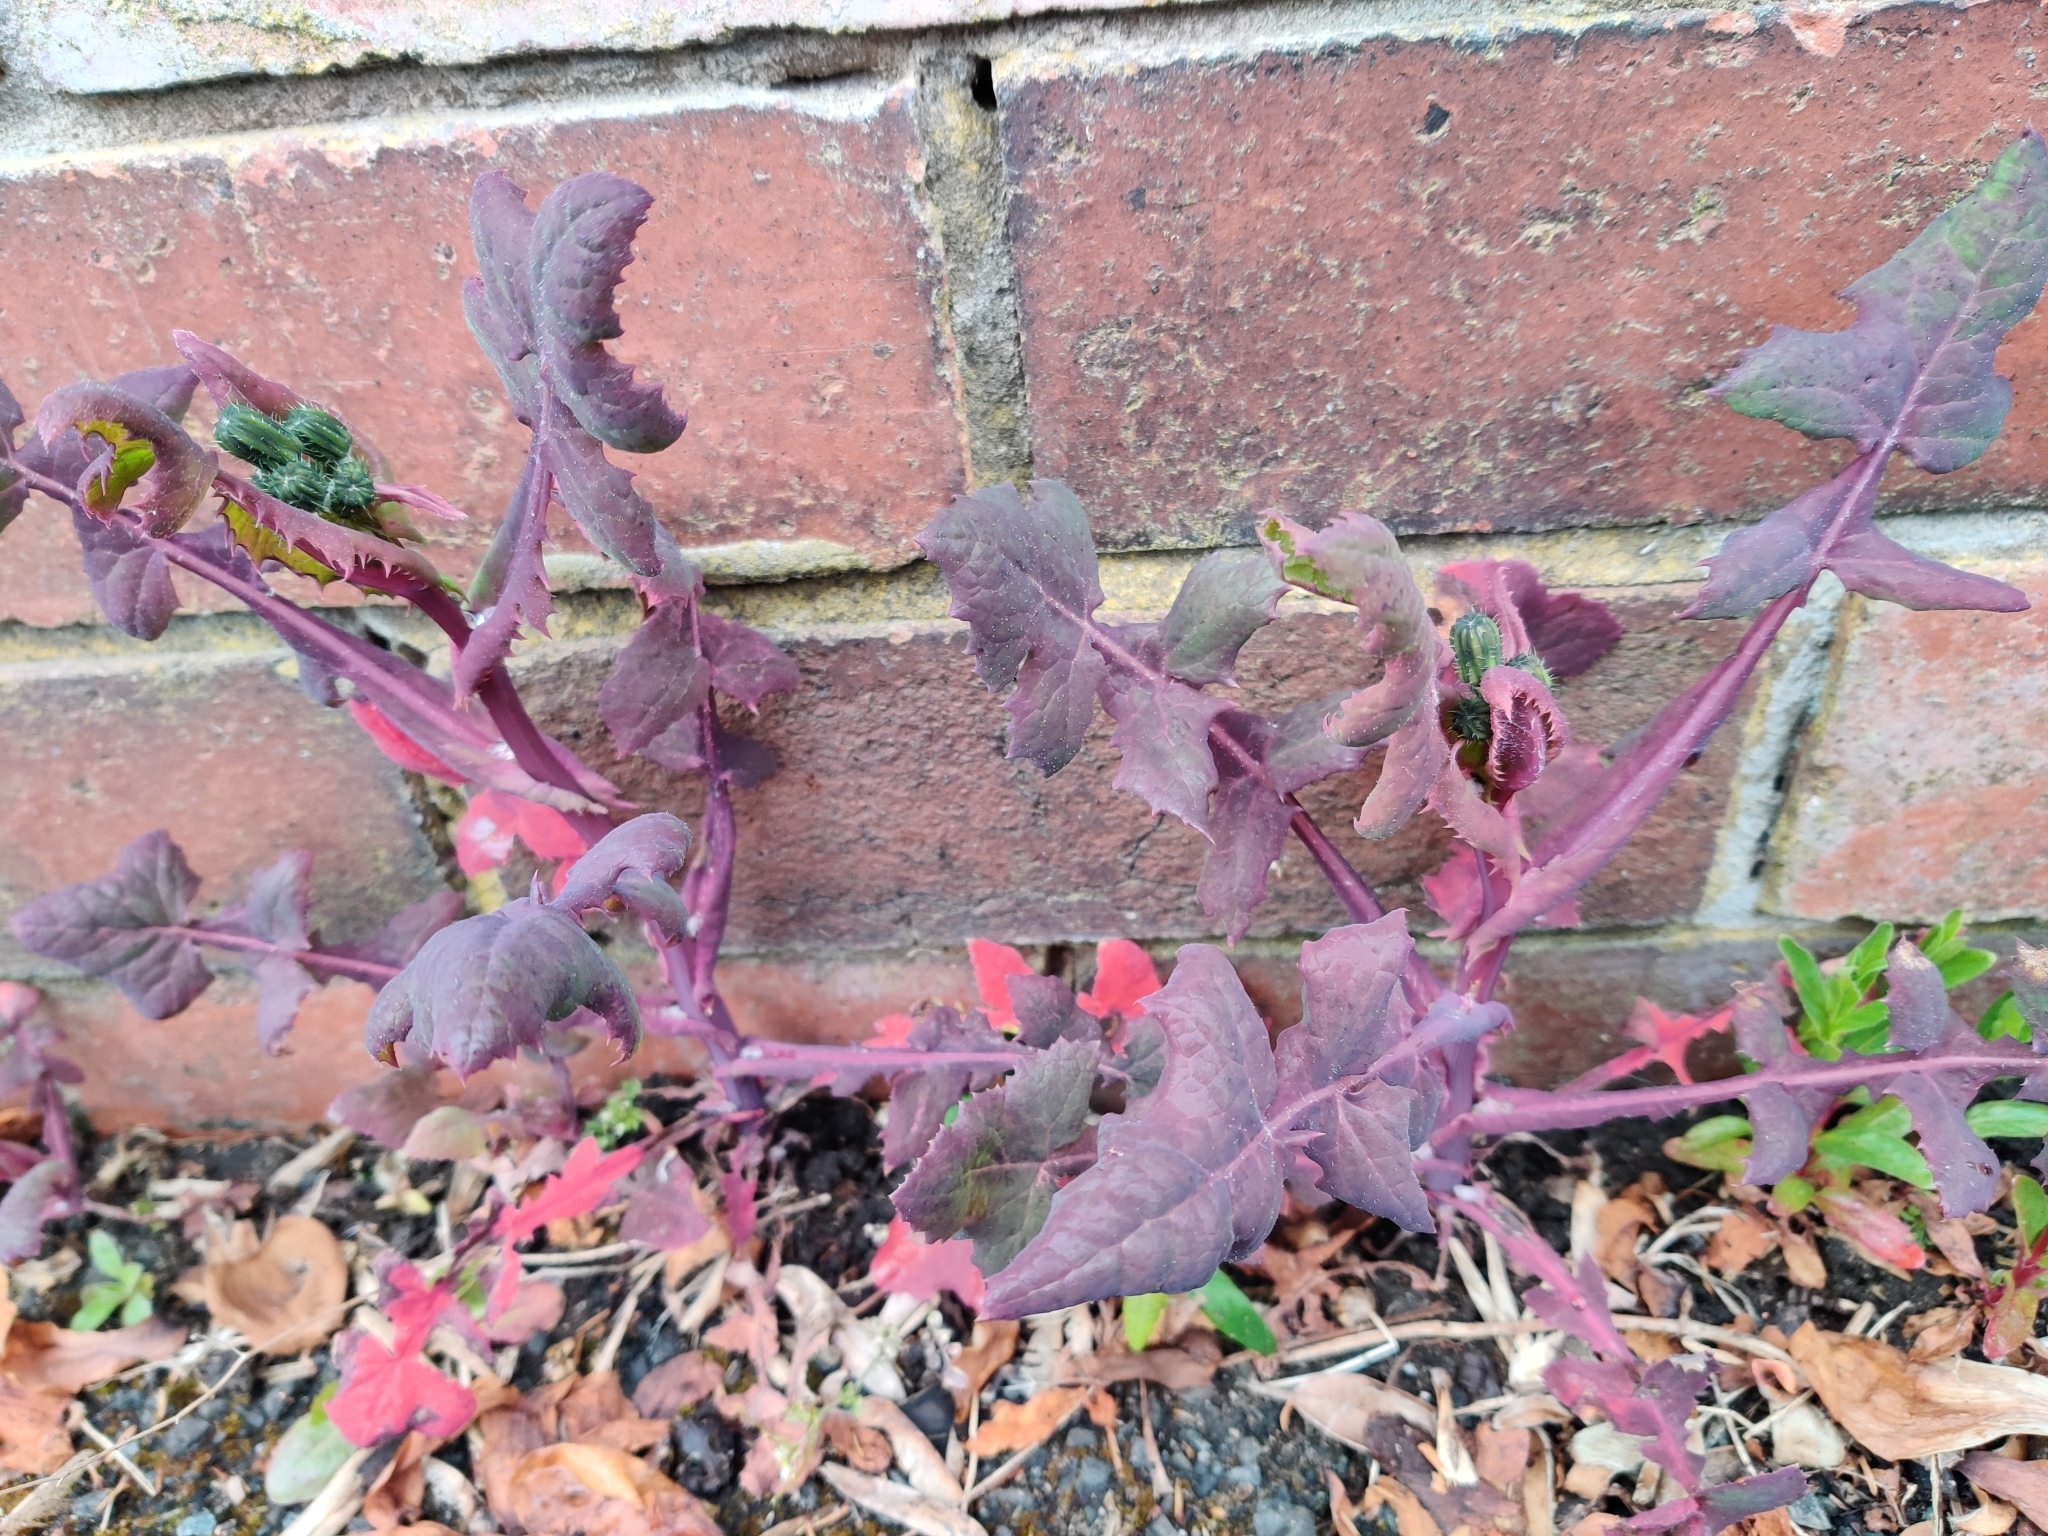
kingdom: Plantae
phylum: Tracheophyta
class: Magnoliopsida
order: Asterales
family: Asteraceae
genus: Sonchus
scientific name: Sonchus oleraceus
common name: Common sowthistle
